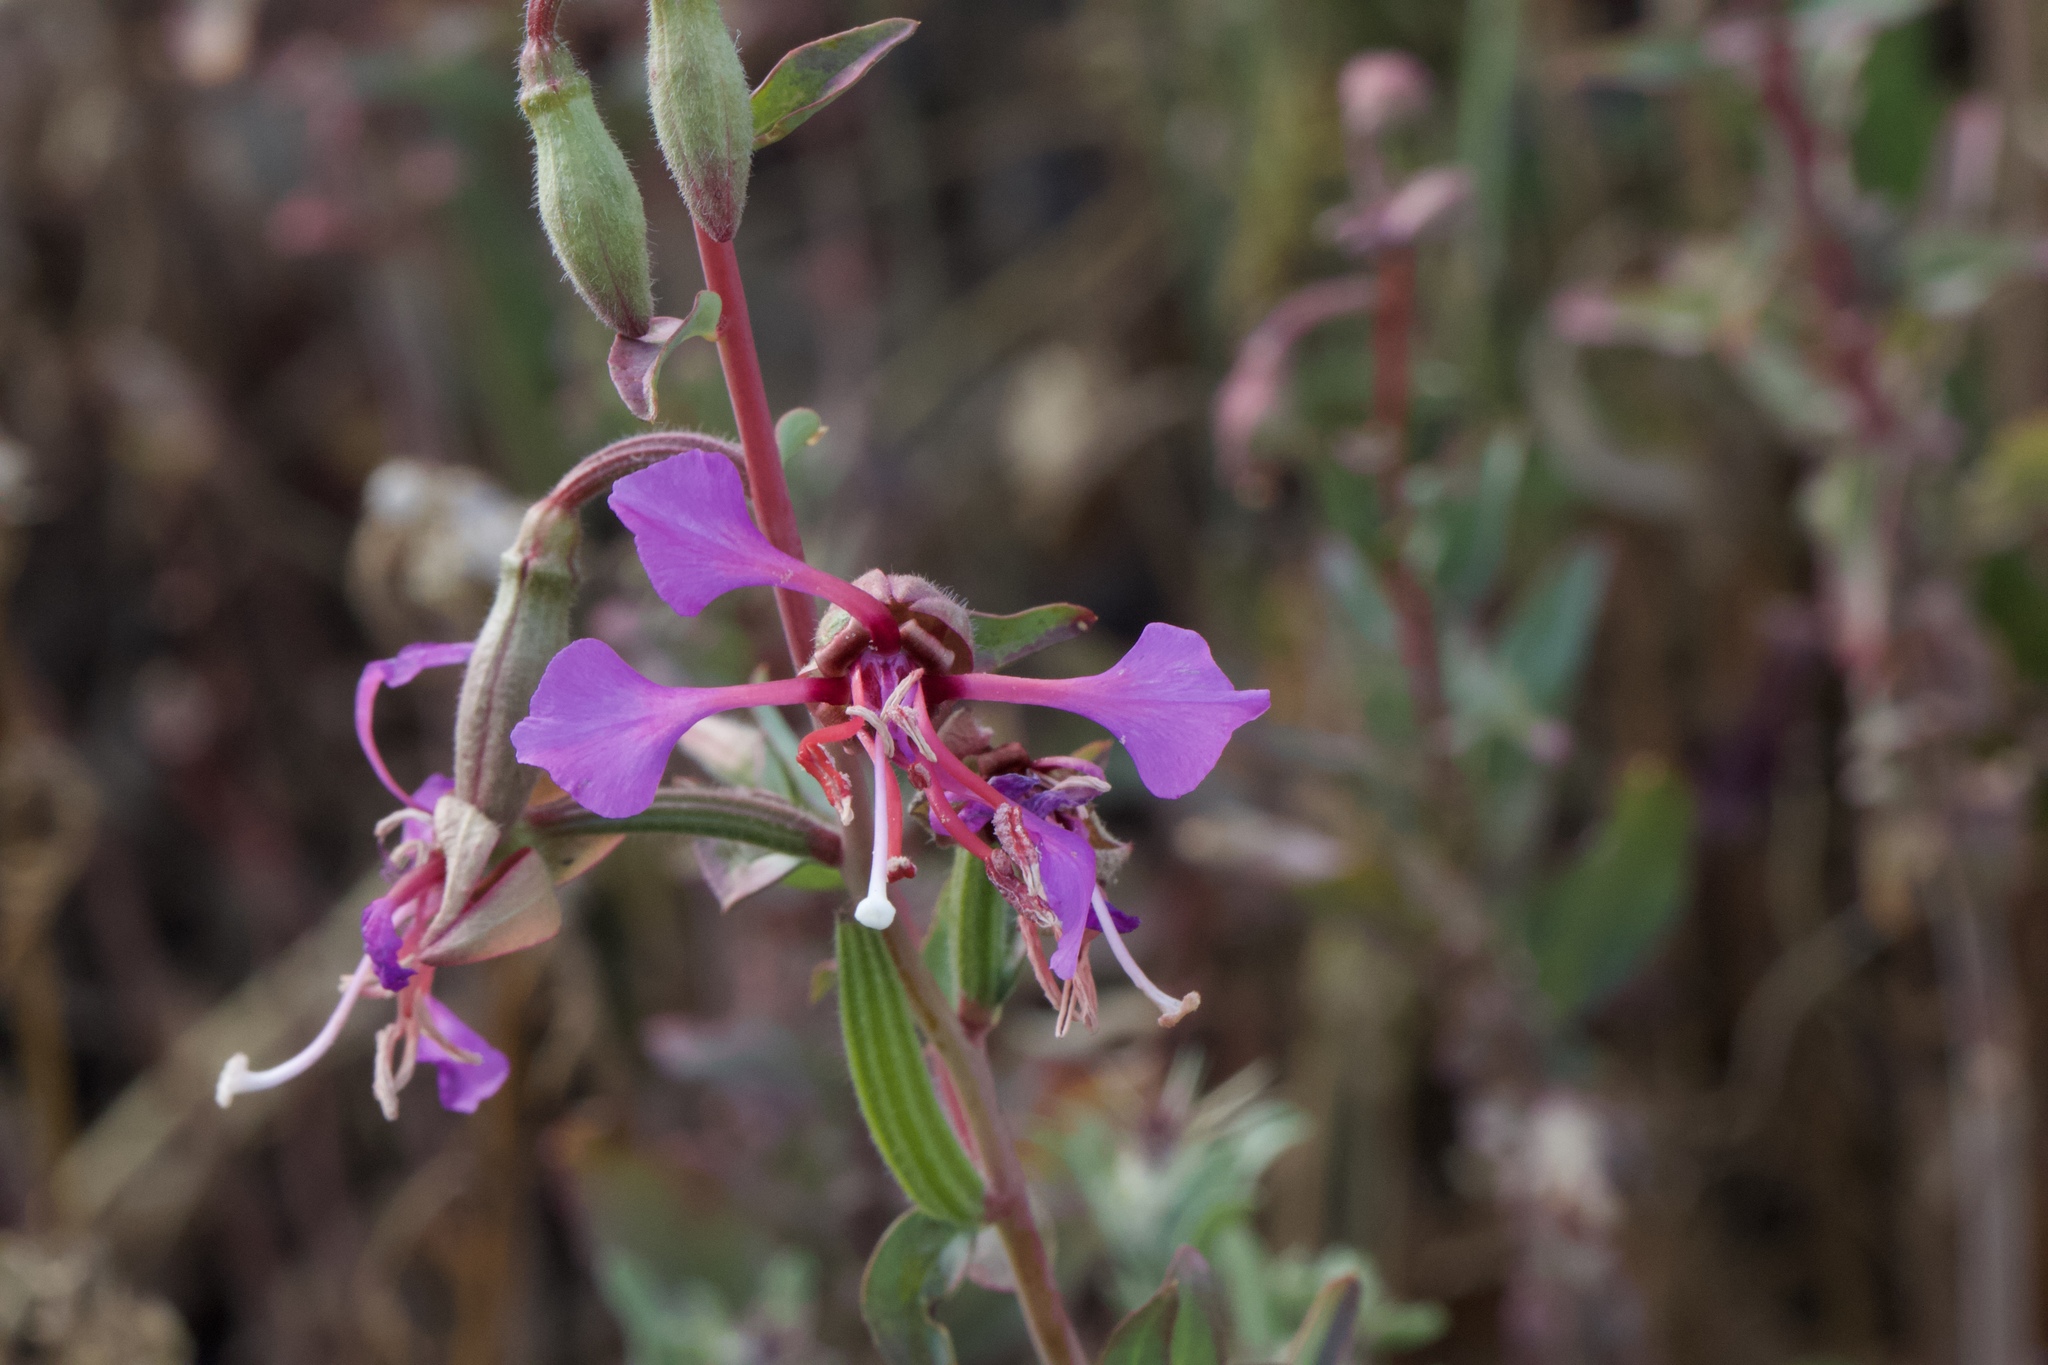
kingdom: Plantae
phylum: Tracheophyta
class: Magnoliopsida
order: Myrtales
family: Onagraceae
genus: Clarkia
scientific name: Clarkia unguiculata
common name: Clarkia
